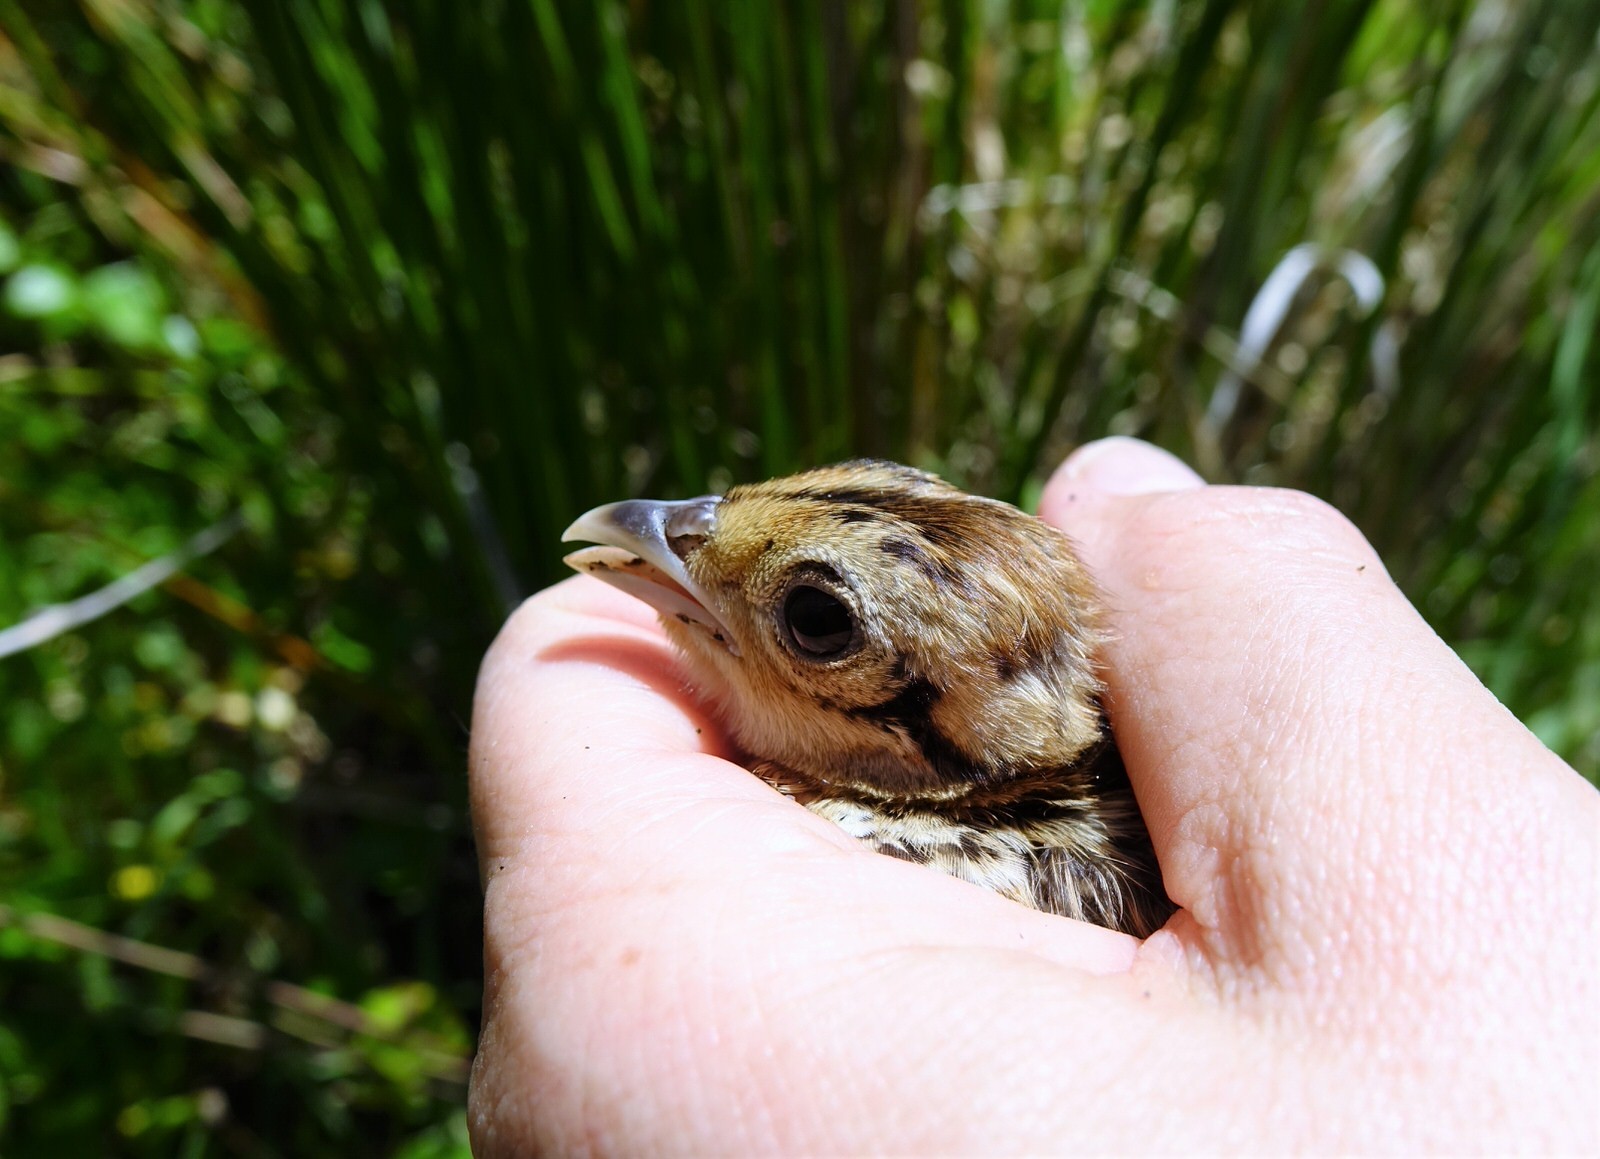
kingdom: Animalia
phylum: Chordata
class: Aves
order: Galliformes
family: Phasianidae
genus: Phasianus
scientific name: Phasianus colchicus
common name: Common pheasant
